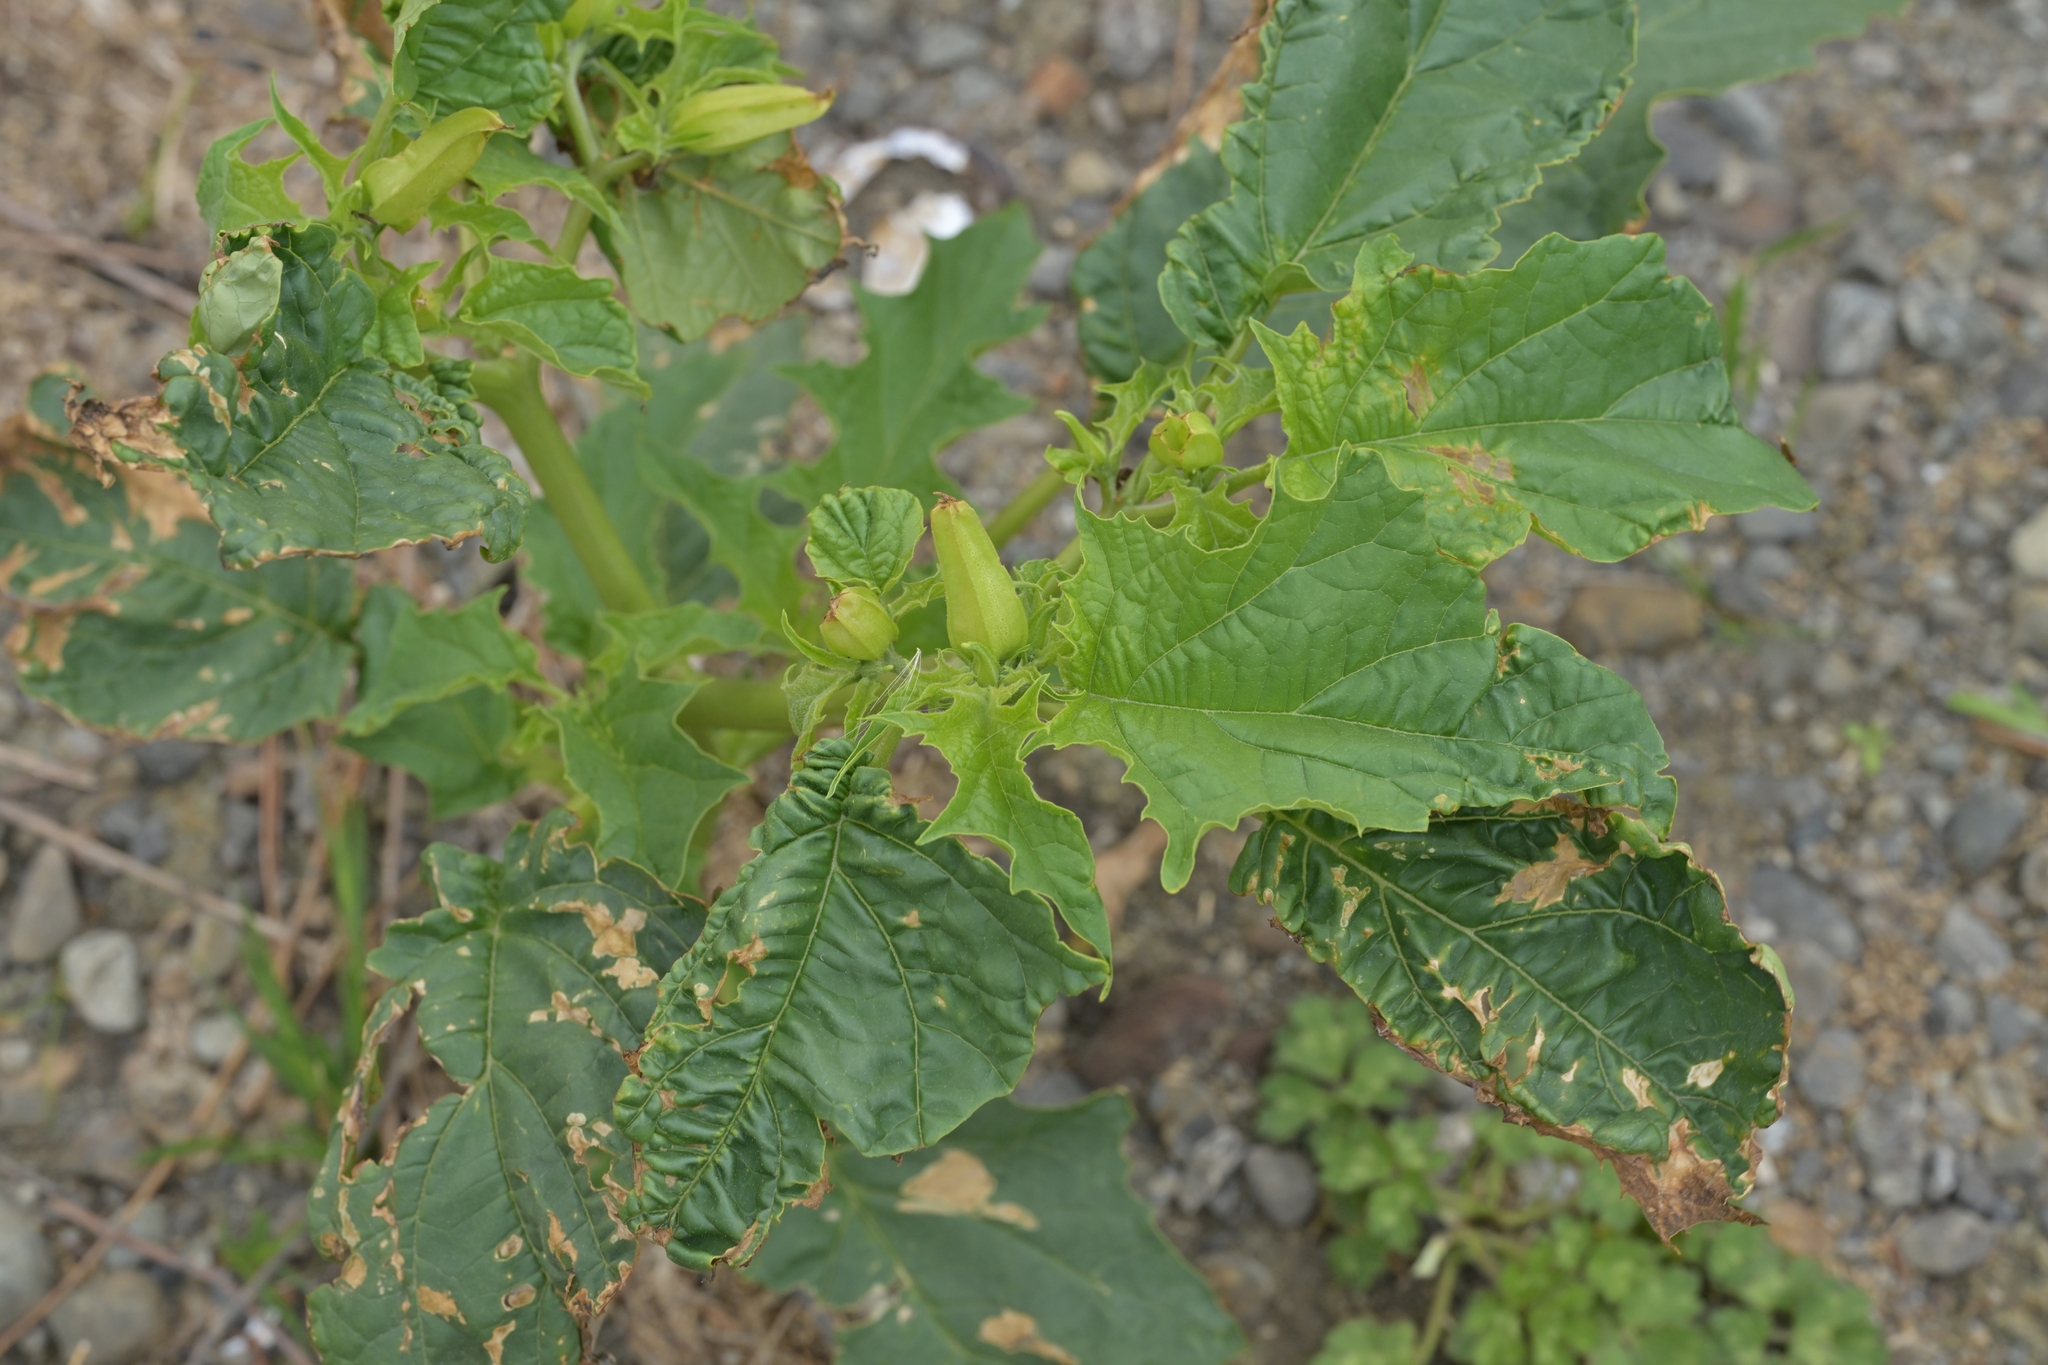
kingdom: Plantae
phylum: Tracheophyta
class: Magnoliopsida
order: Solanales
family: Solanaceae
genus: Datura
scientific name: Datura stramonium
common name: Thorn-apple
